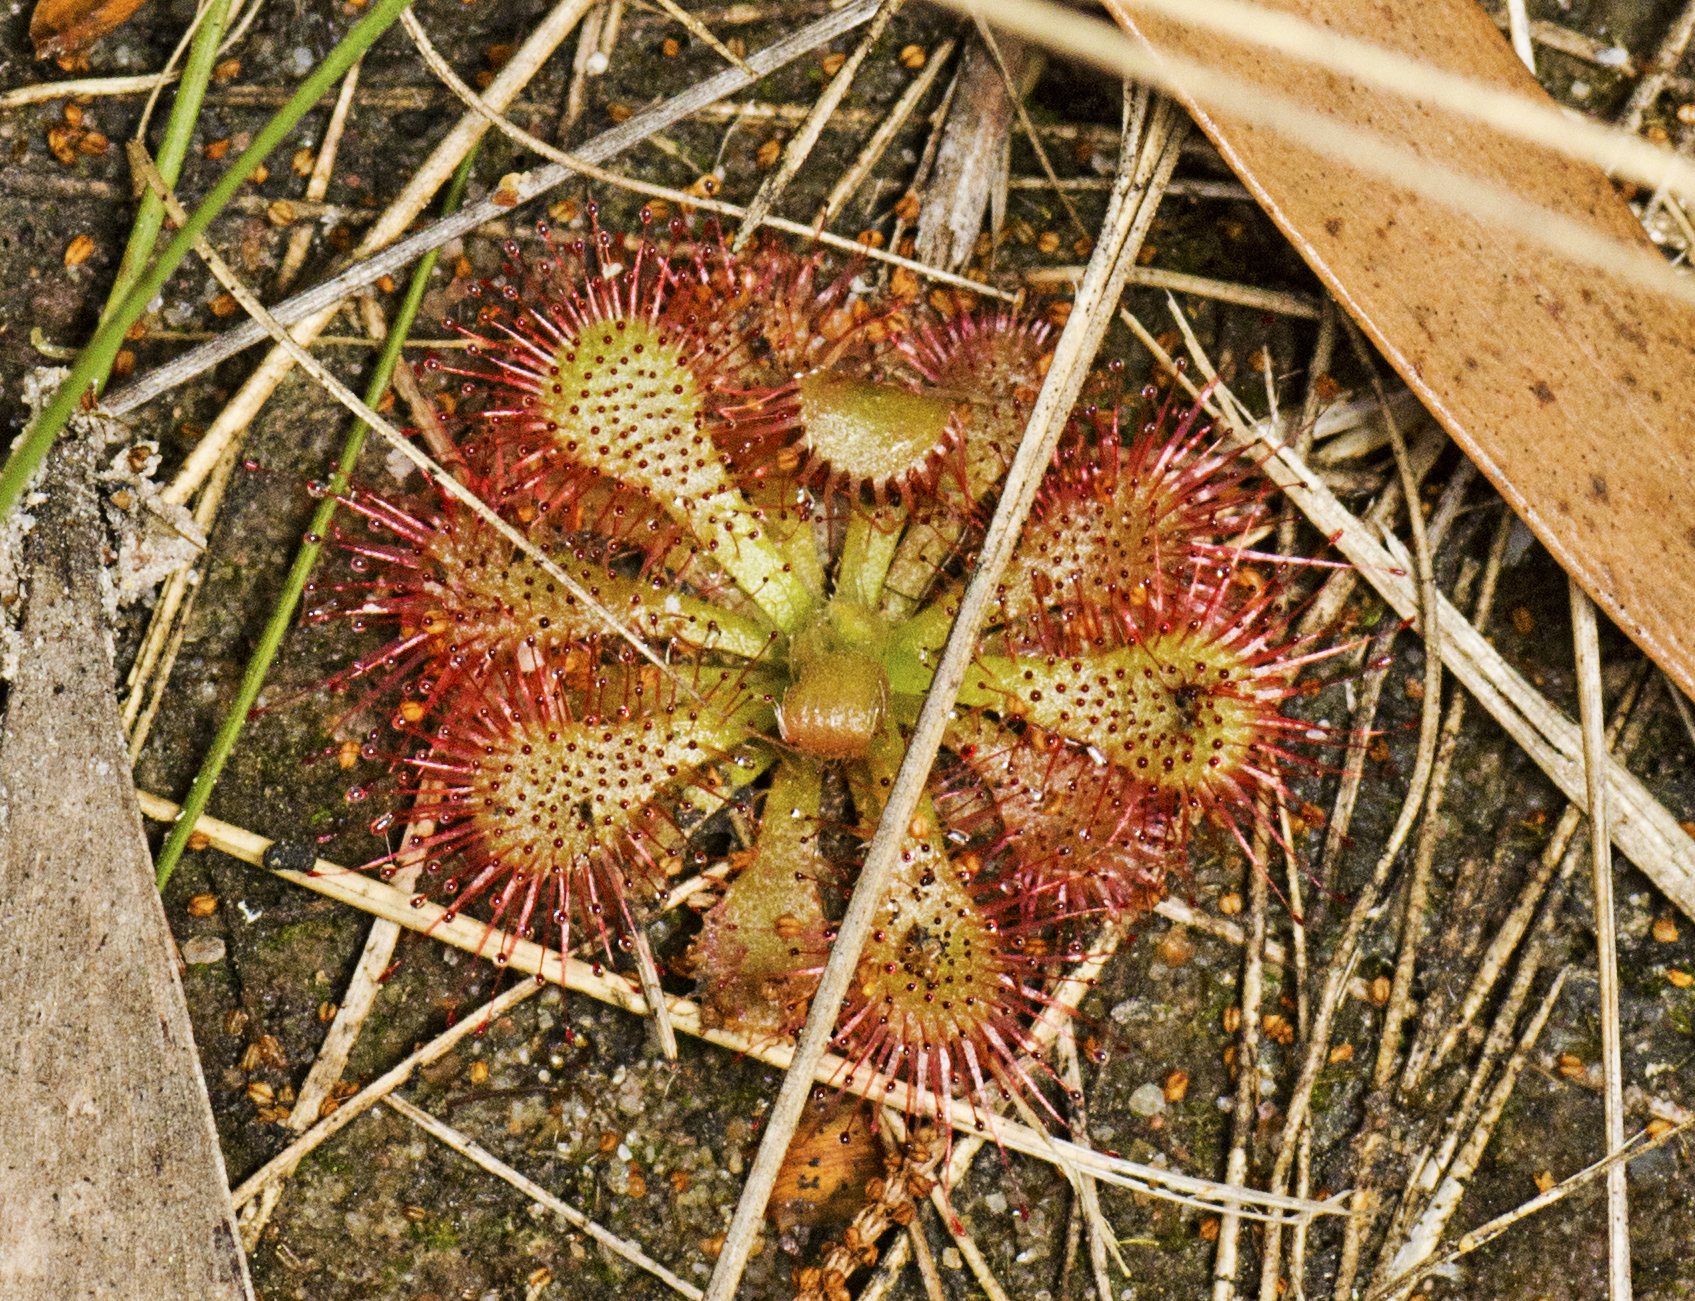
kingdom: Plantae
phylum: Tracheophyta
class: Magnoliopsida
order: Caryophyllales
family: Droseraceae
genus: Drosera
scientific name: Drosera spatulata
